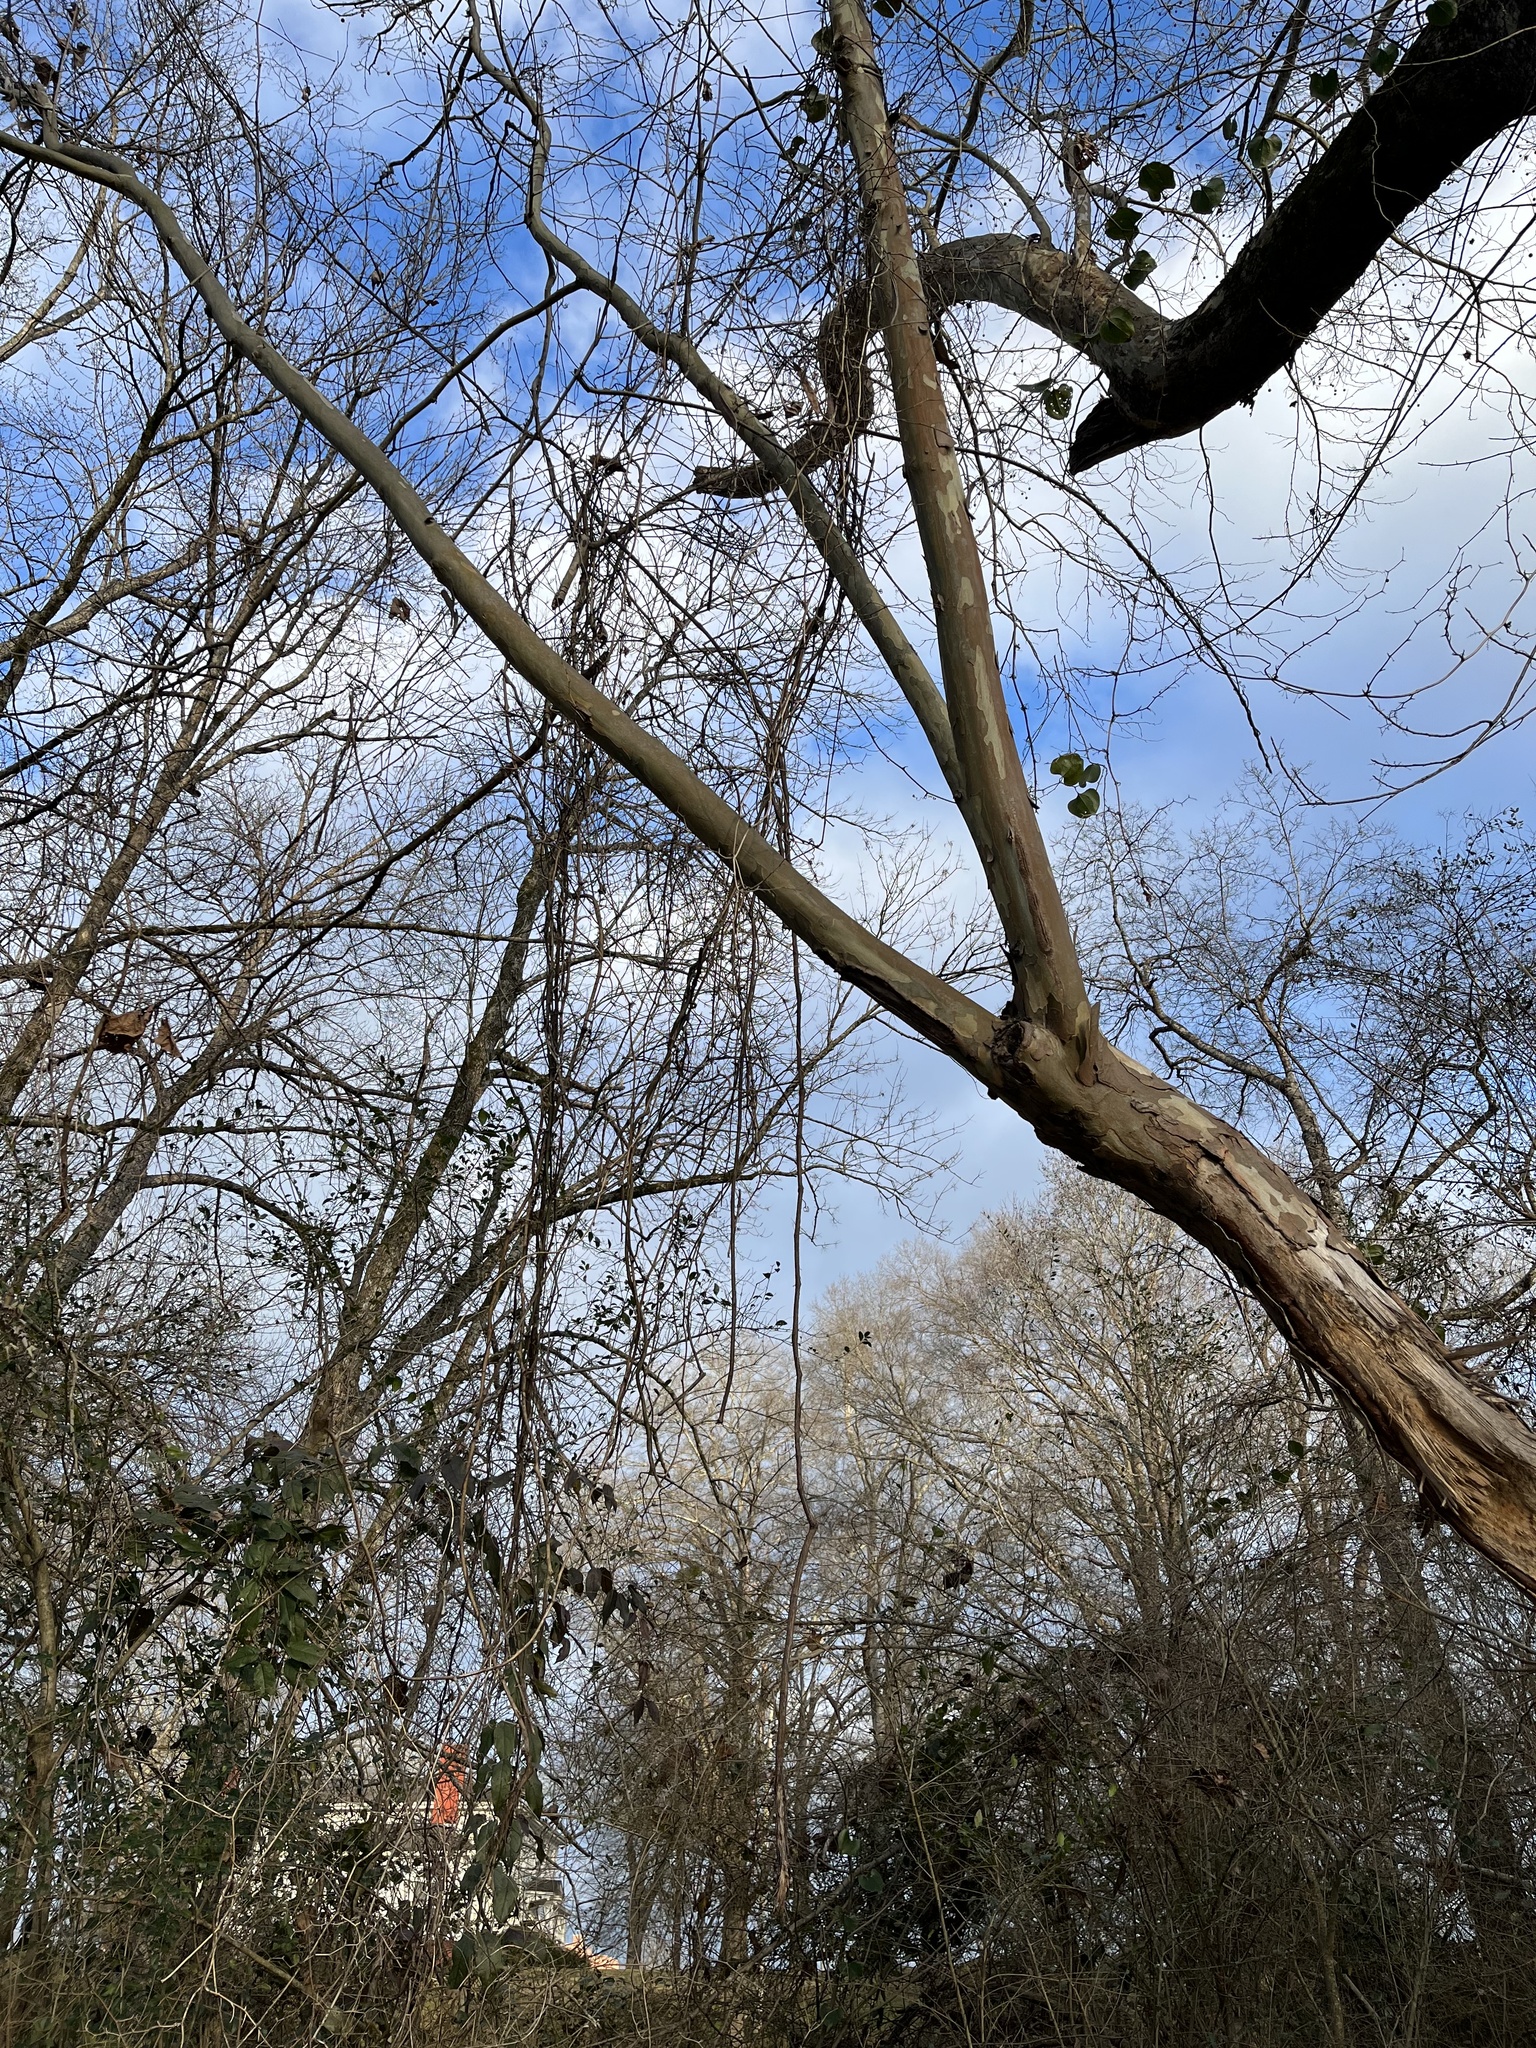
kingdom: Plantae
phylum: Tracheophyta
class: Magnoliopsida
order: Proteales
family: Platanaceae
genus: Platanus
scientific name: Platanus occidentalis
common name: American sycamore
